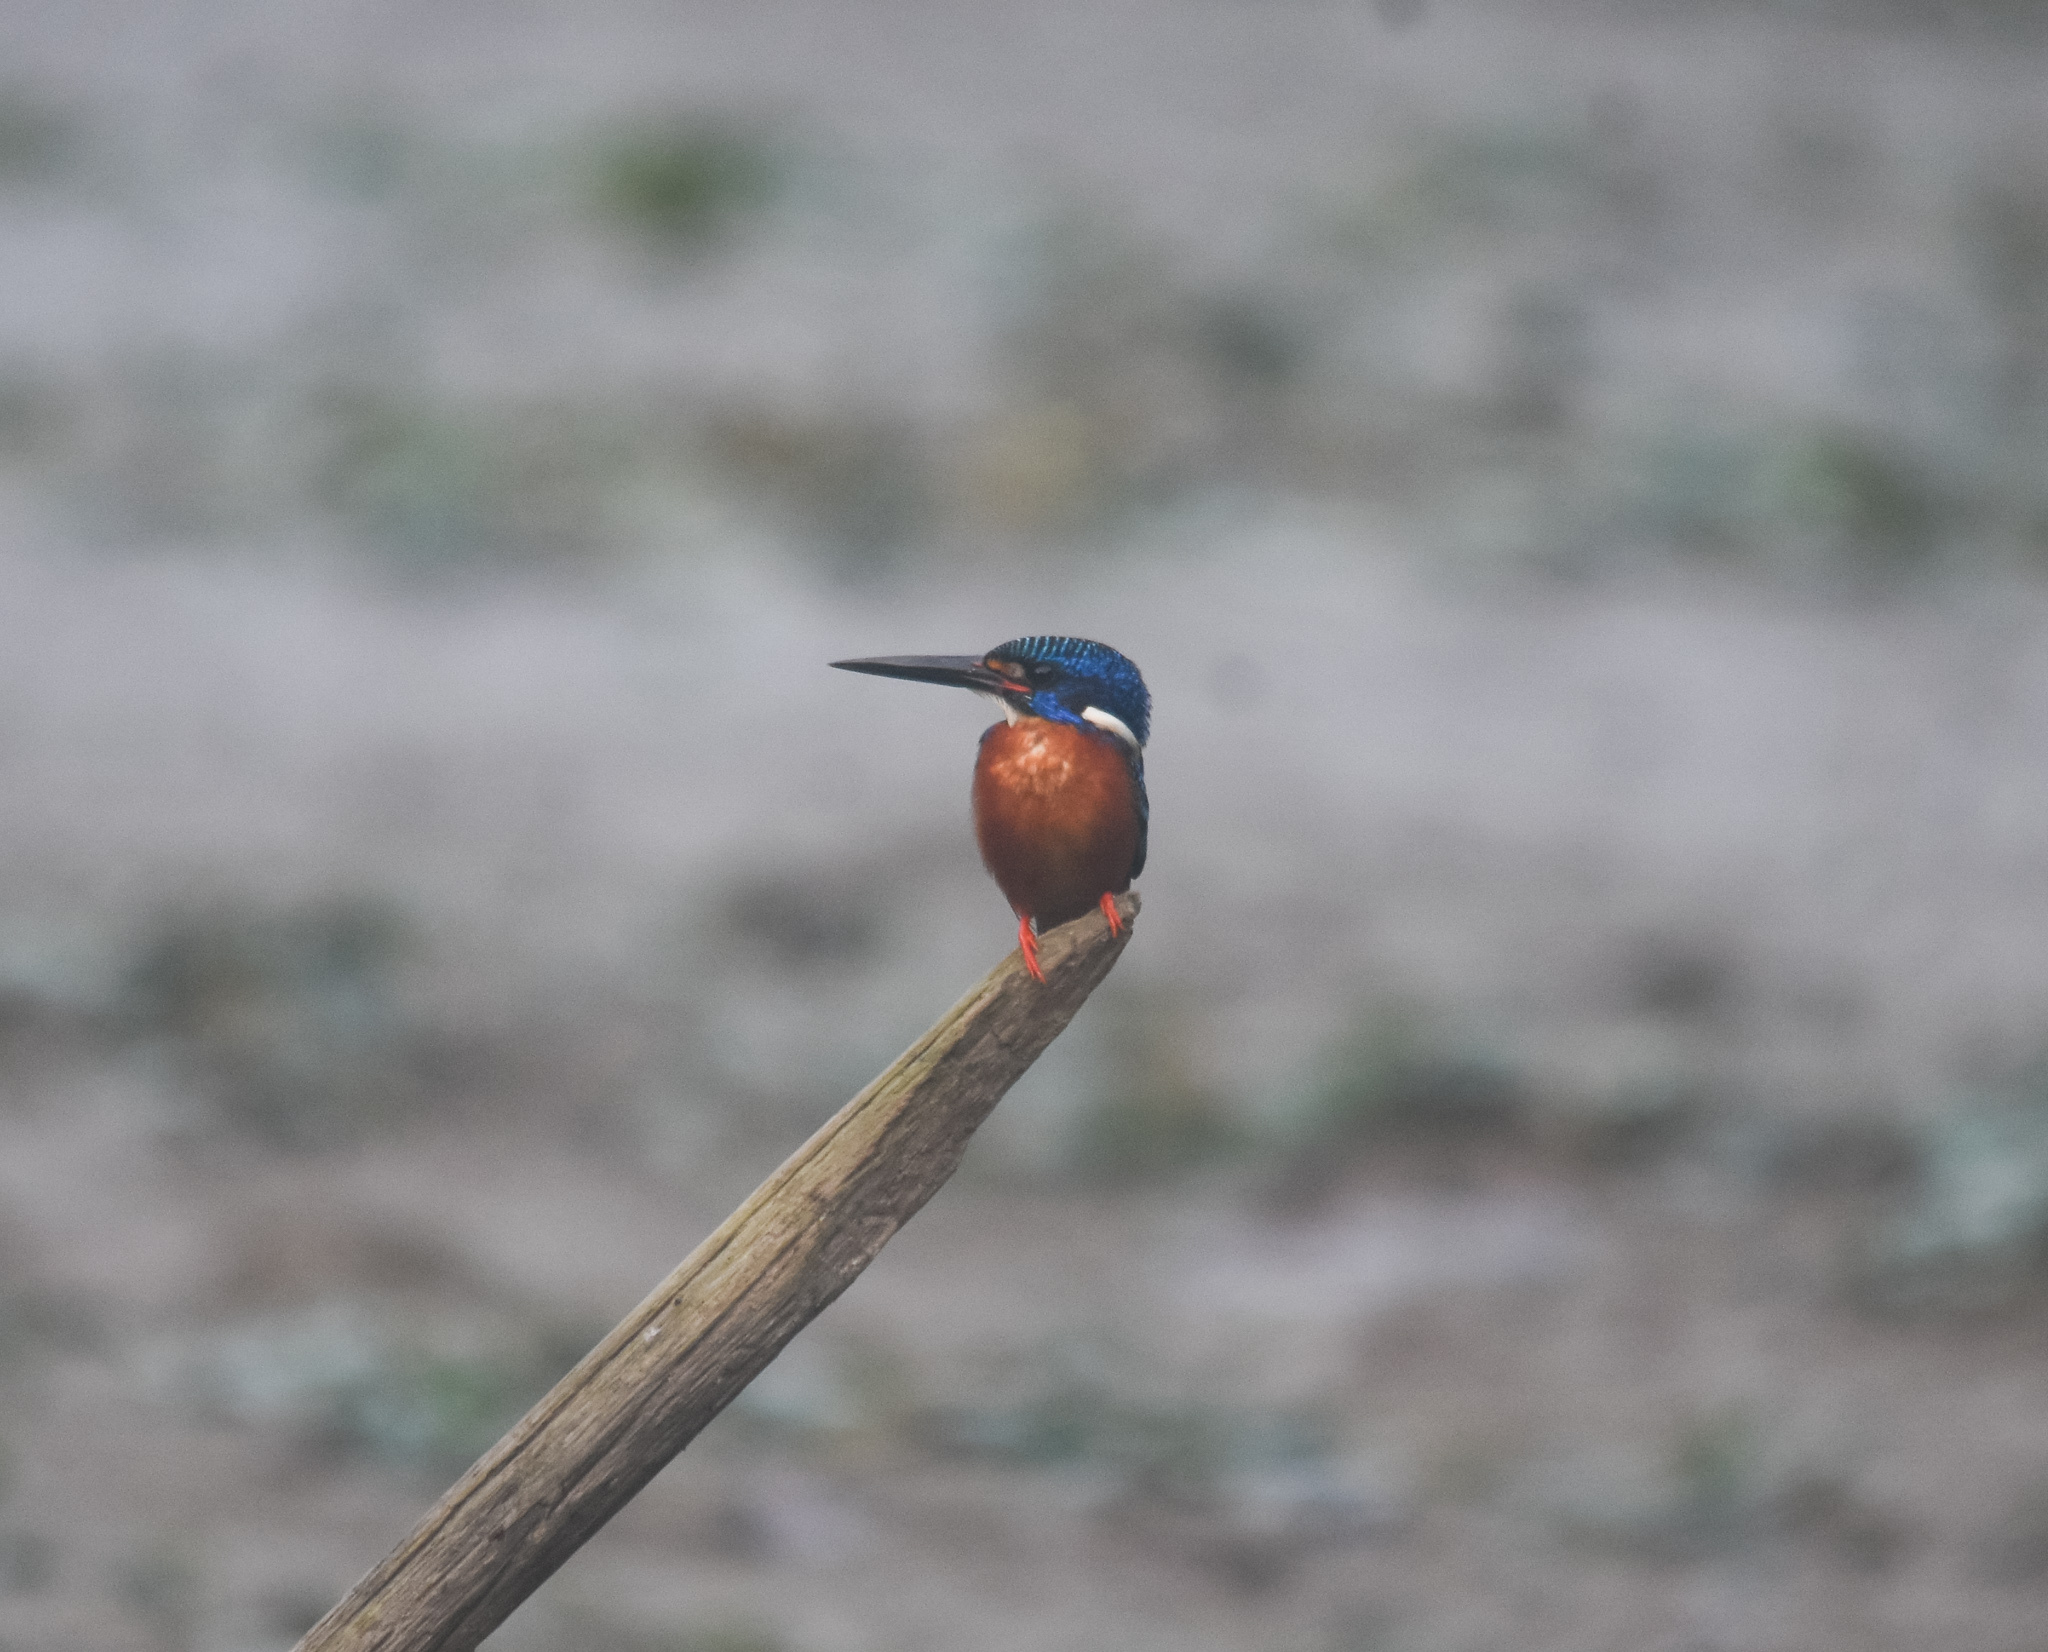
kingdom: Animalia
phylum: Chordata
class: Aves
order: Coraciiformes
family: Alcedinidae
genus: Alcedo
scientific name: Alcedo meninting
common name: Blue-eared kingfisher
